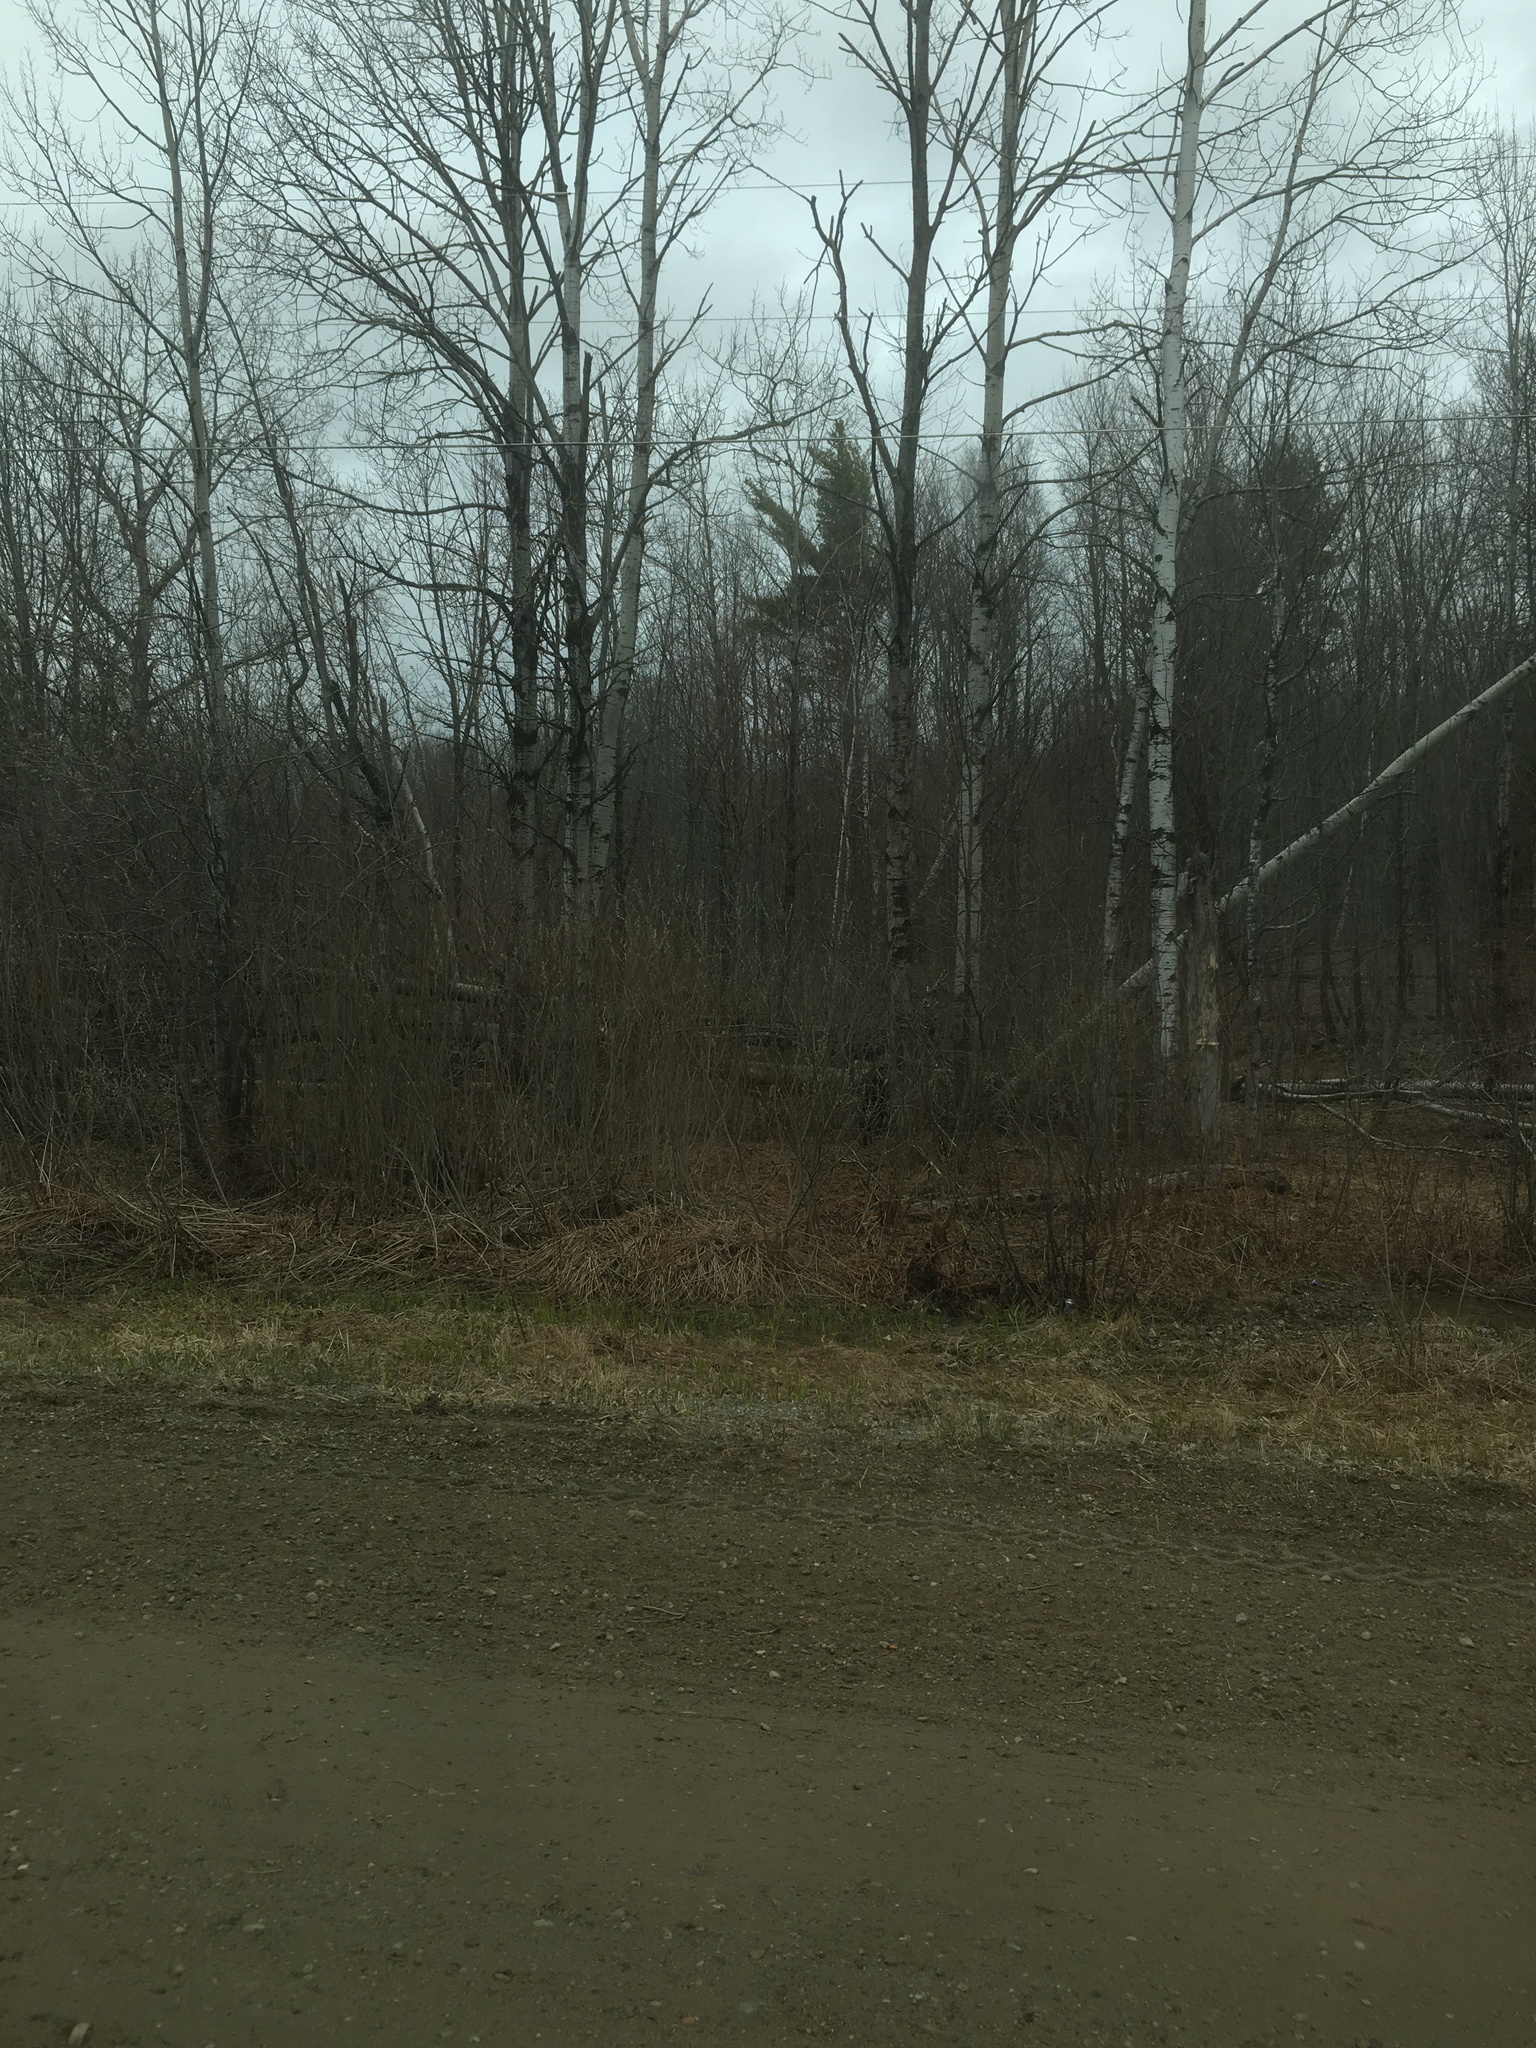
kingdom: Plantae
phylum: Tracheophyta
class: Magnoliopsida
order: Malpighiales
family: Salicaceae
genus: Populus
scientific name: Populus tremuloides
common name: Quaking aspen
